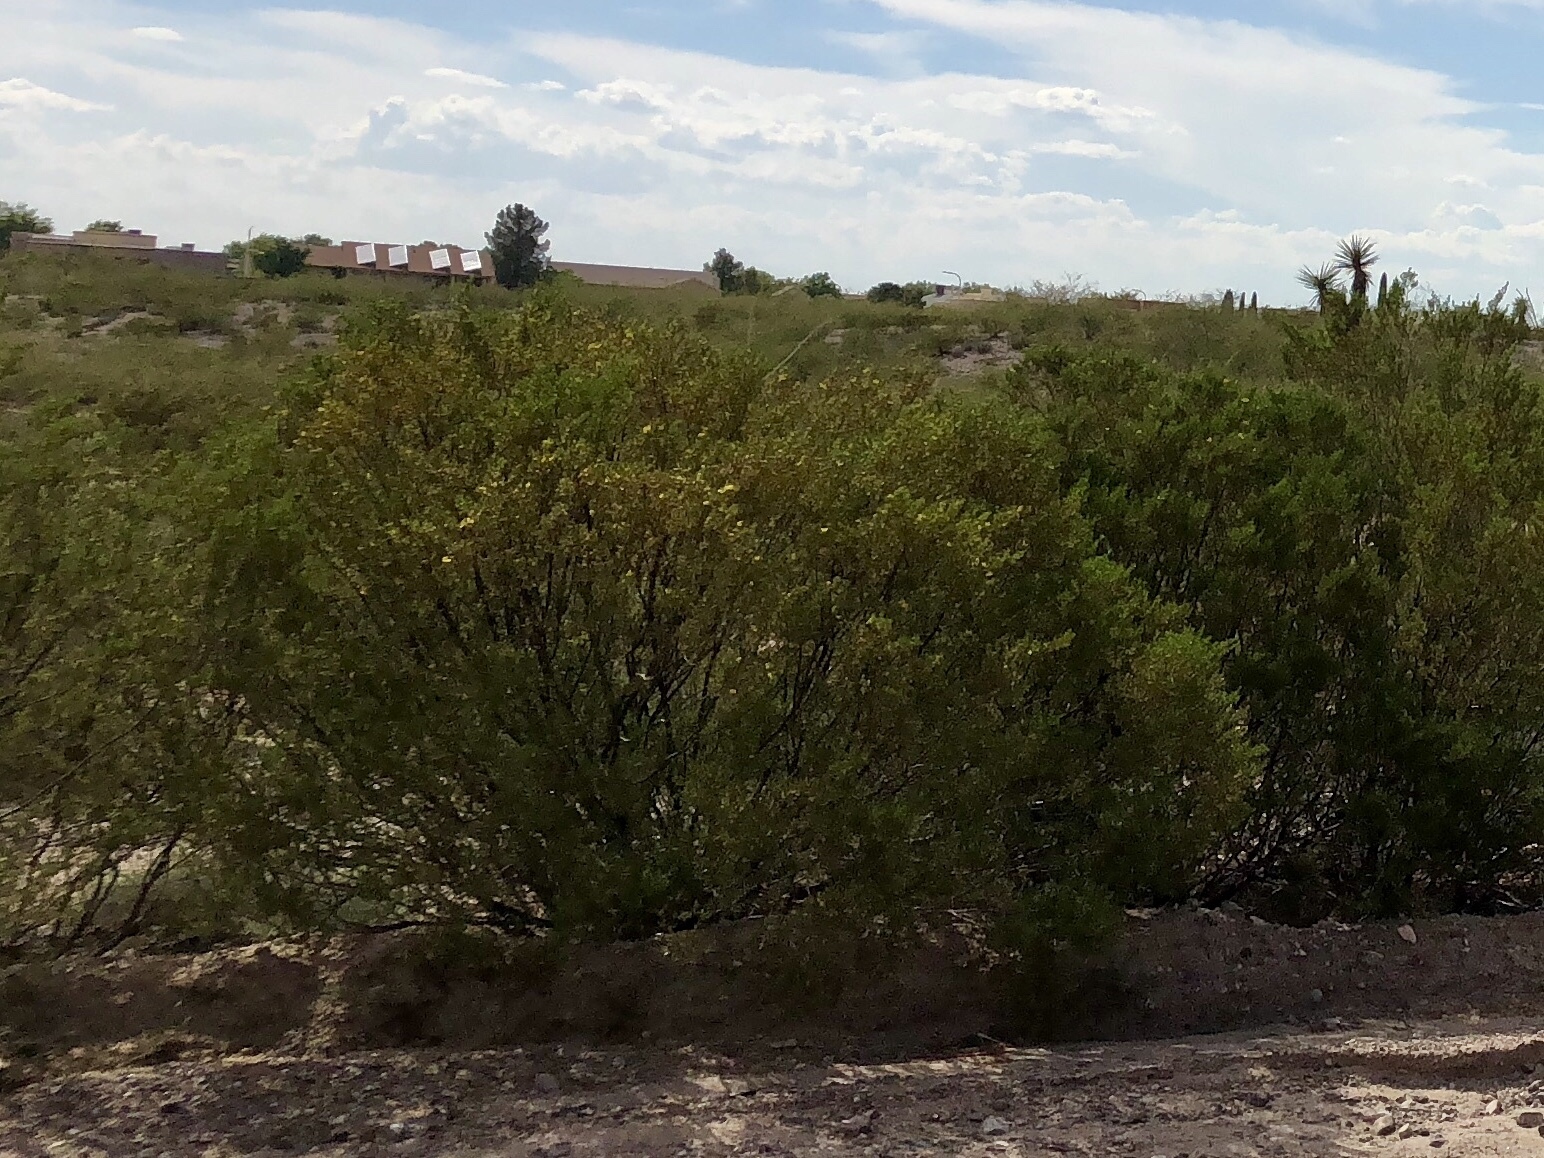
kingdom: Plantae
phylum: Tracheophyta
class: Magnoliopsida
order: Zygophyllales
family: Zygophyllaceae
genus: Larrea
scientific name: Larrea tridentata
